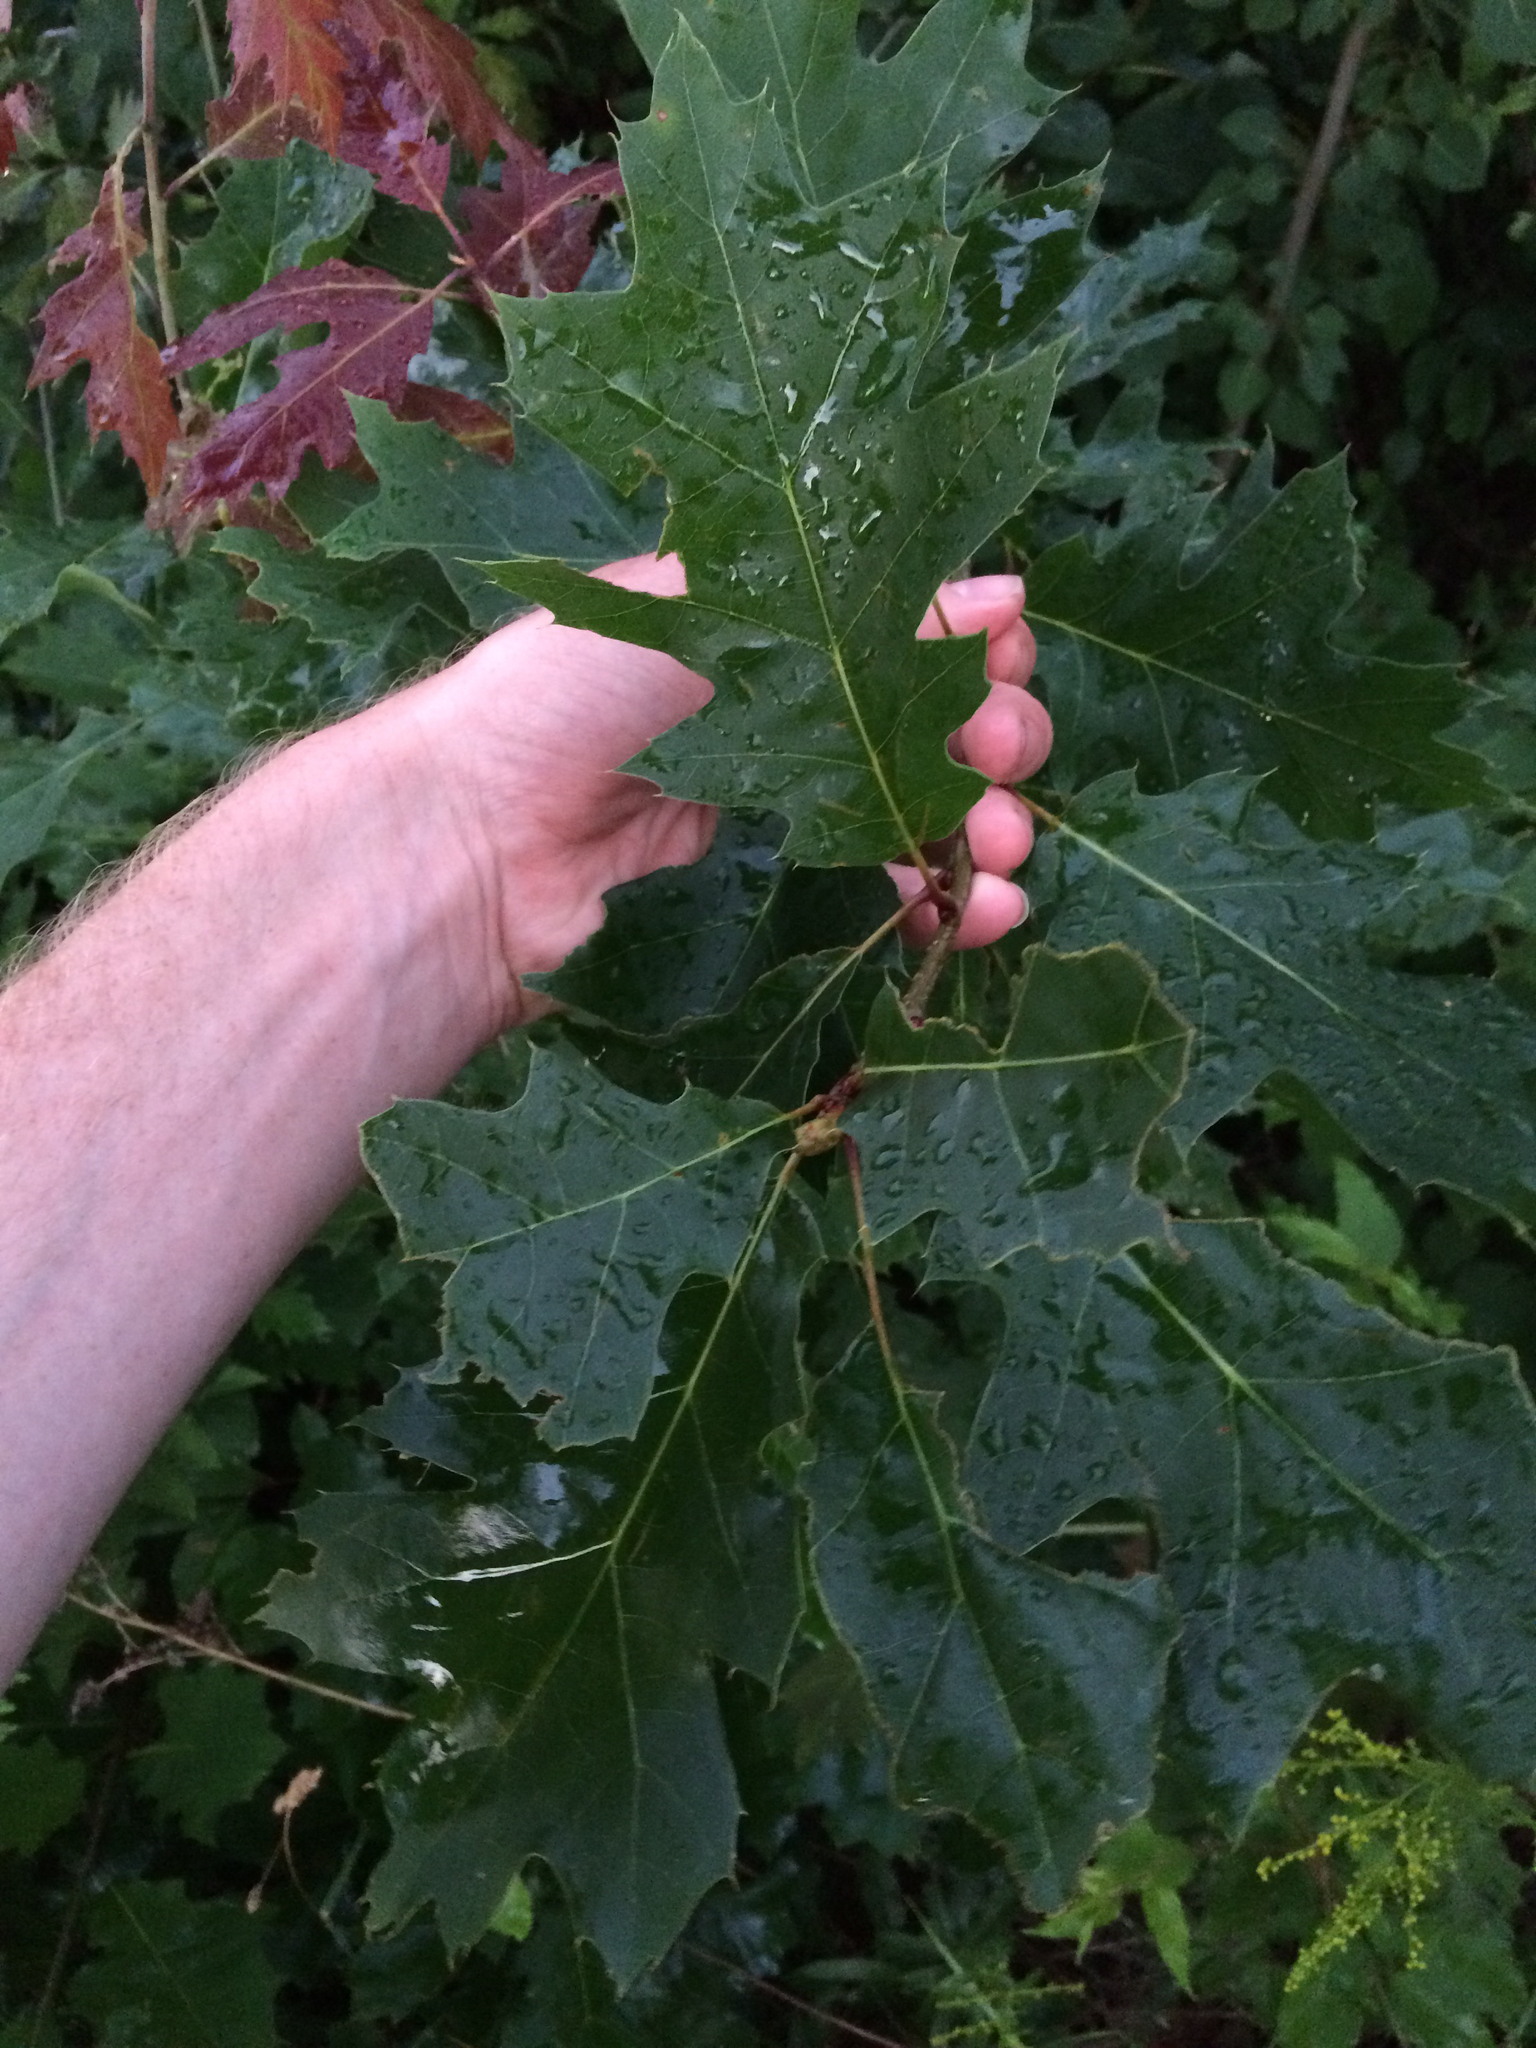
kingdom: Plantae
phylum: Tracheophyta
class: Magnoliopsida
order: Fagales
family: Fagaceae
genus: Quercus
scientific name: Quercus rubra
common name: Red oak
